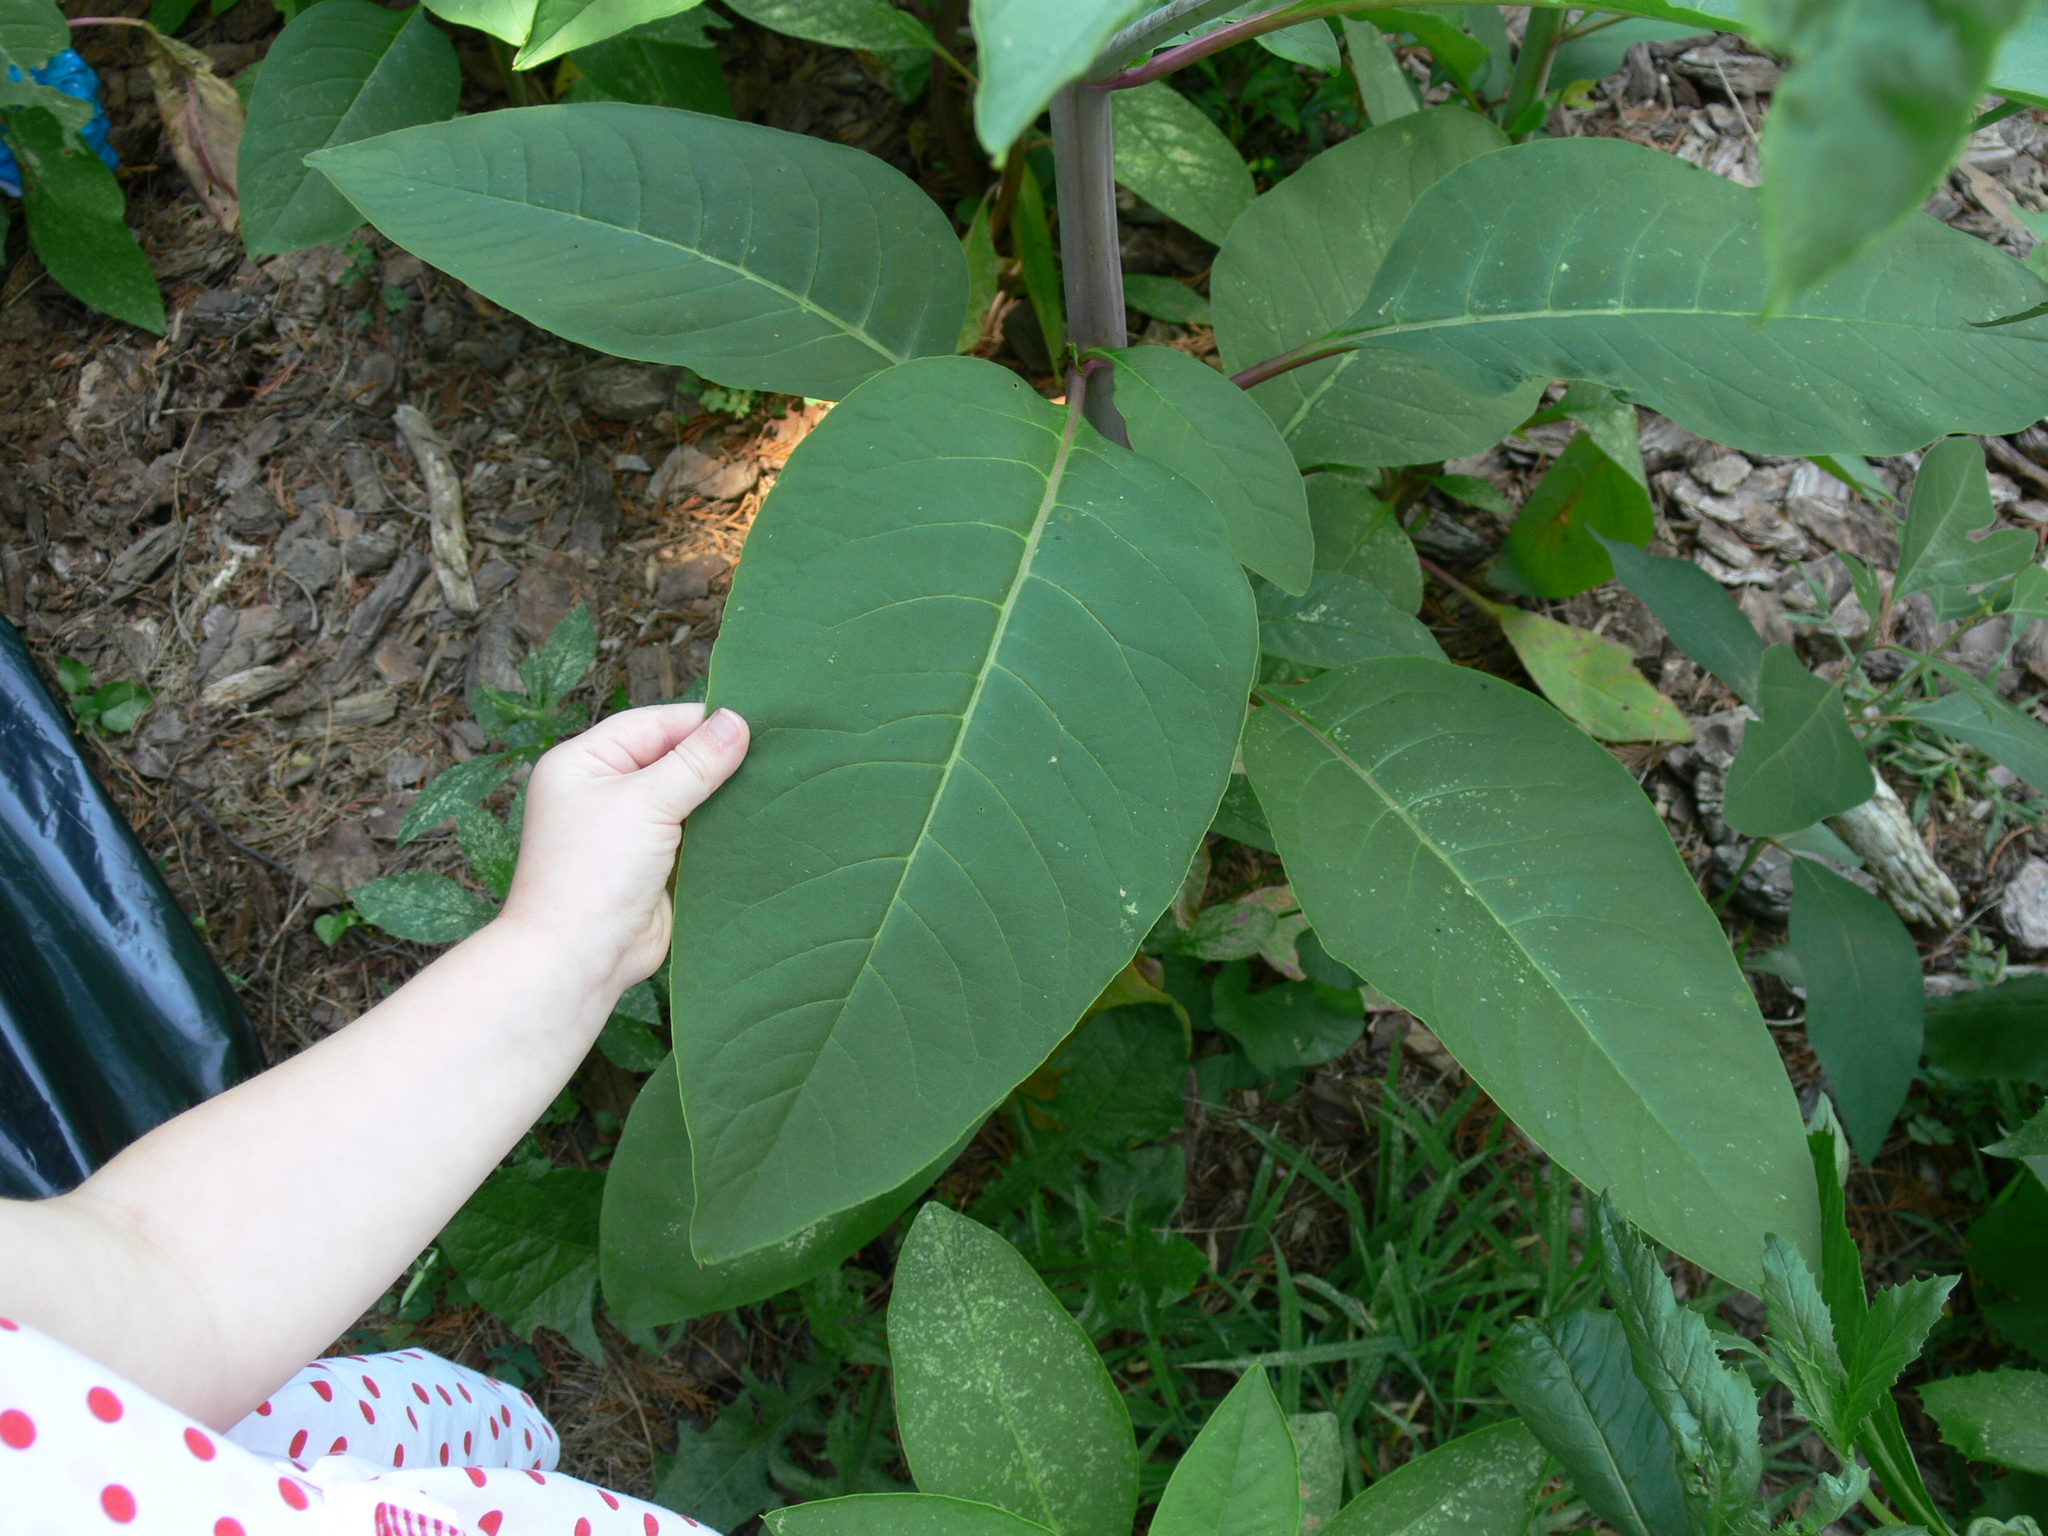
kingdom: Plantae
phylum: Tracheophyta
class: Magnoliopsida
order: Caryophyllales
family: Phytolaccaceae
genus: Phytolacca
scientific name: Phytolacca americana
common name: American pokeweed
